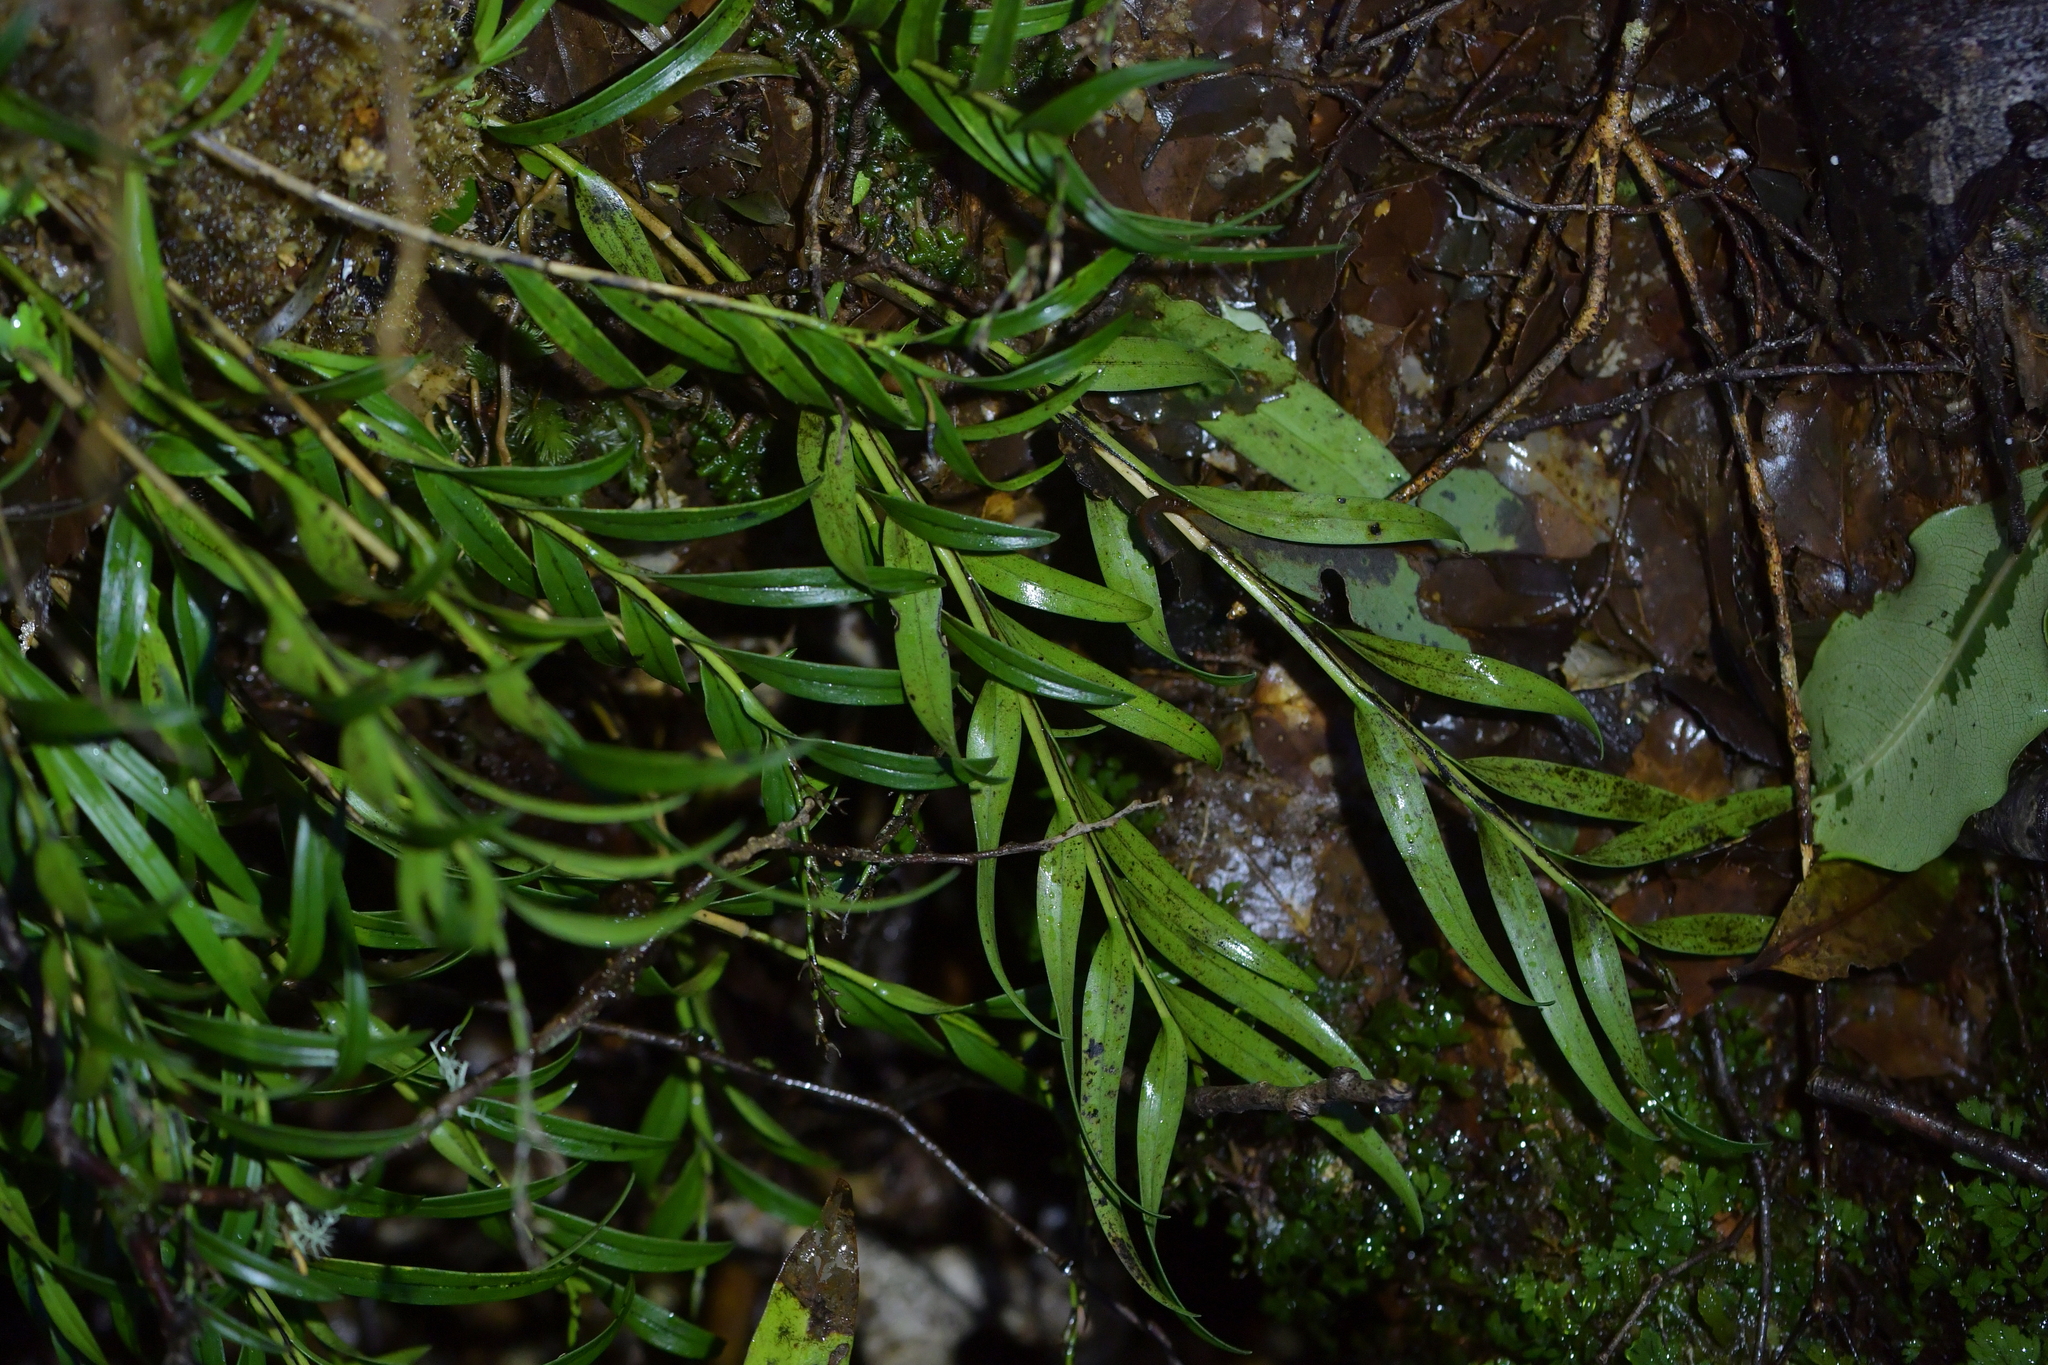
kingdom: Plantae
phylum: Tracheophyta
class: Liliopsida
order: Asparagales
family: Orchidaceae
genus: Earina
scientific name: Earina autumnalis
